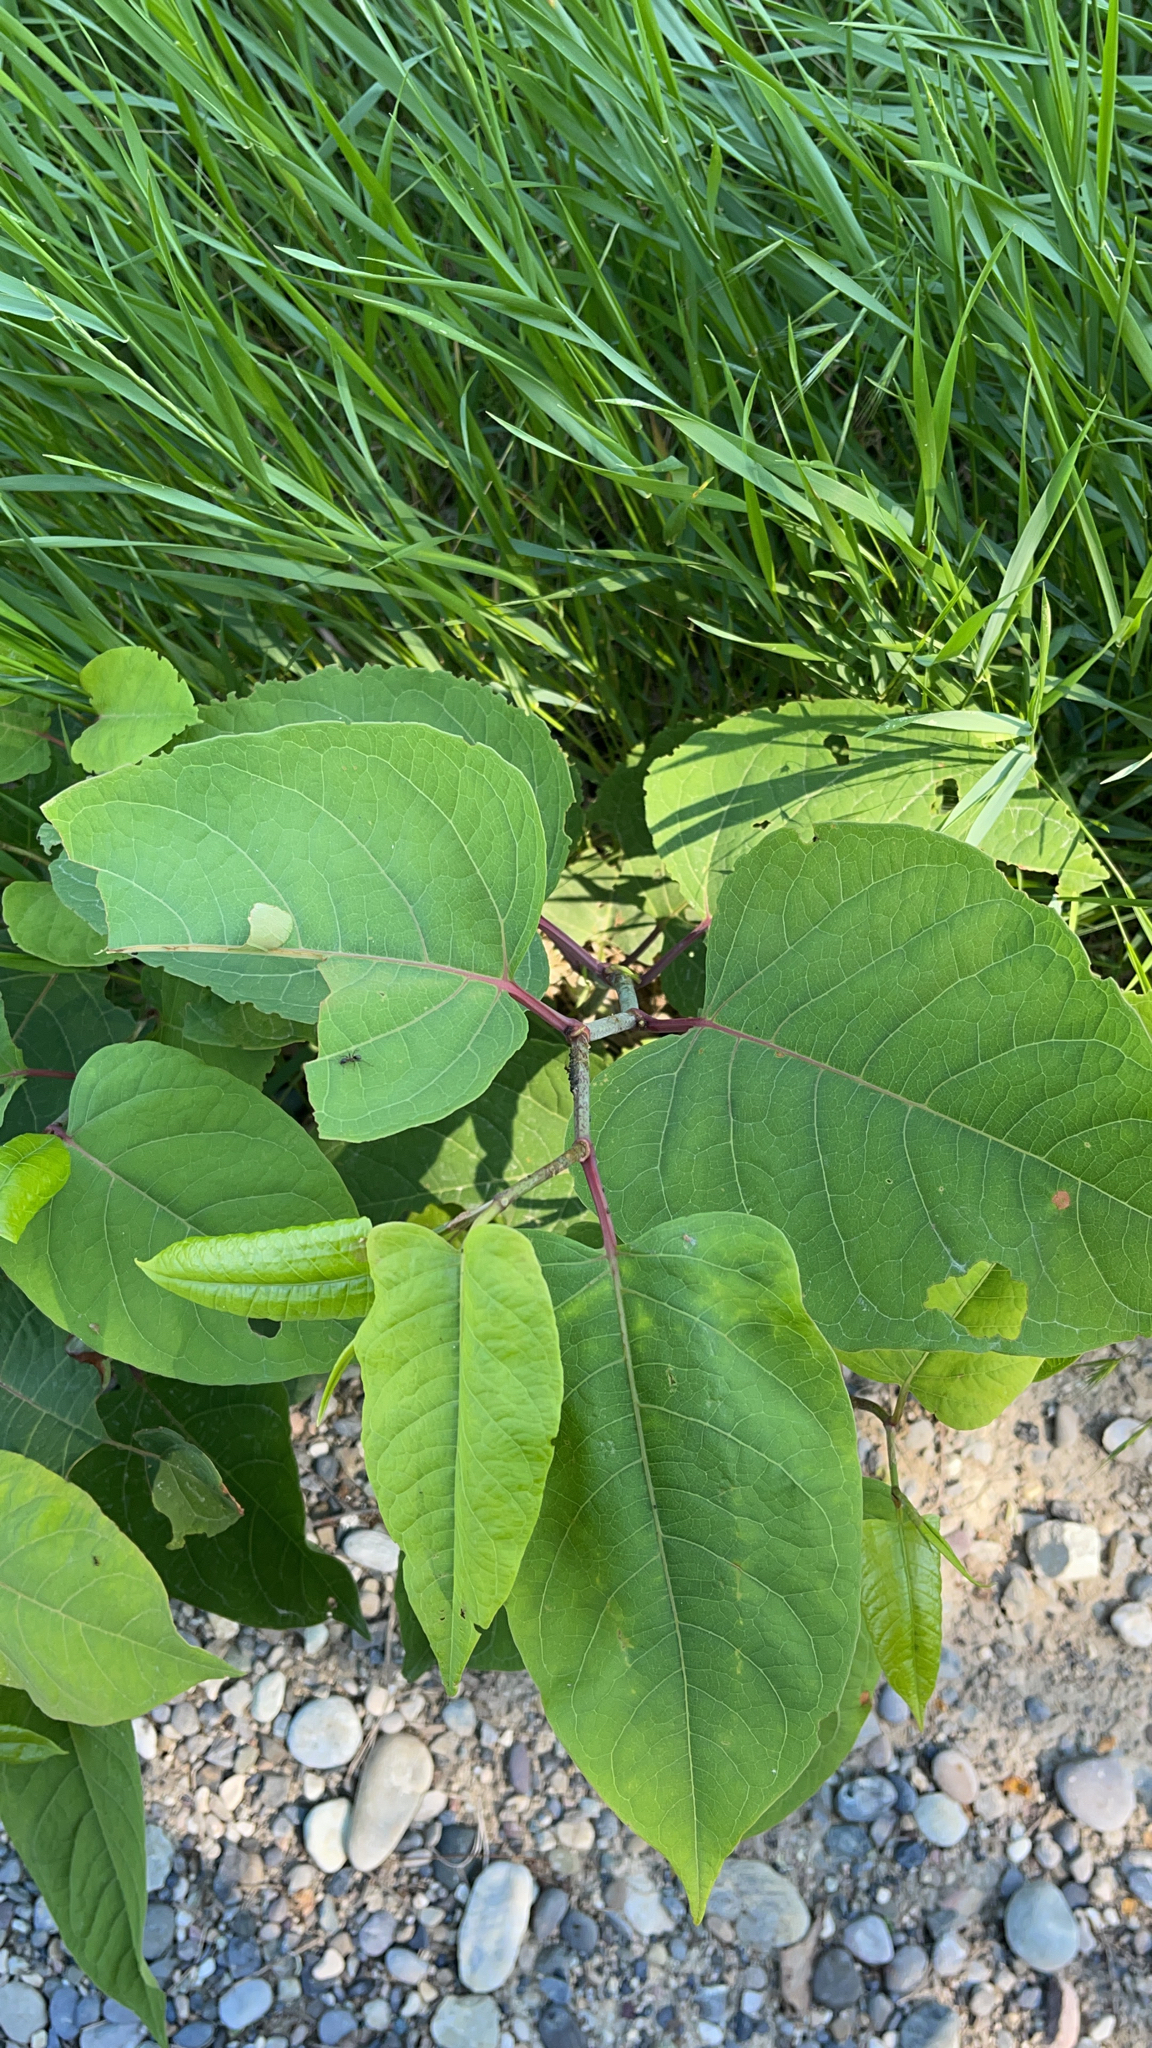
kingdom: Plantae
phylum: Tracheophyta
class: Magnoliopsida
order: Caryophyllales
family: Polygonaceae
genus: Reynoutria
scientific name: Reynoutria japonica
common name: Japanese knotweed
